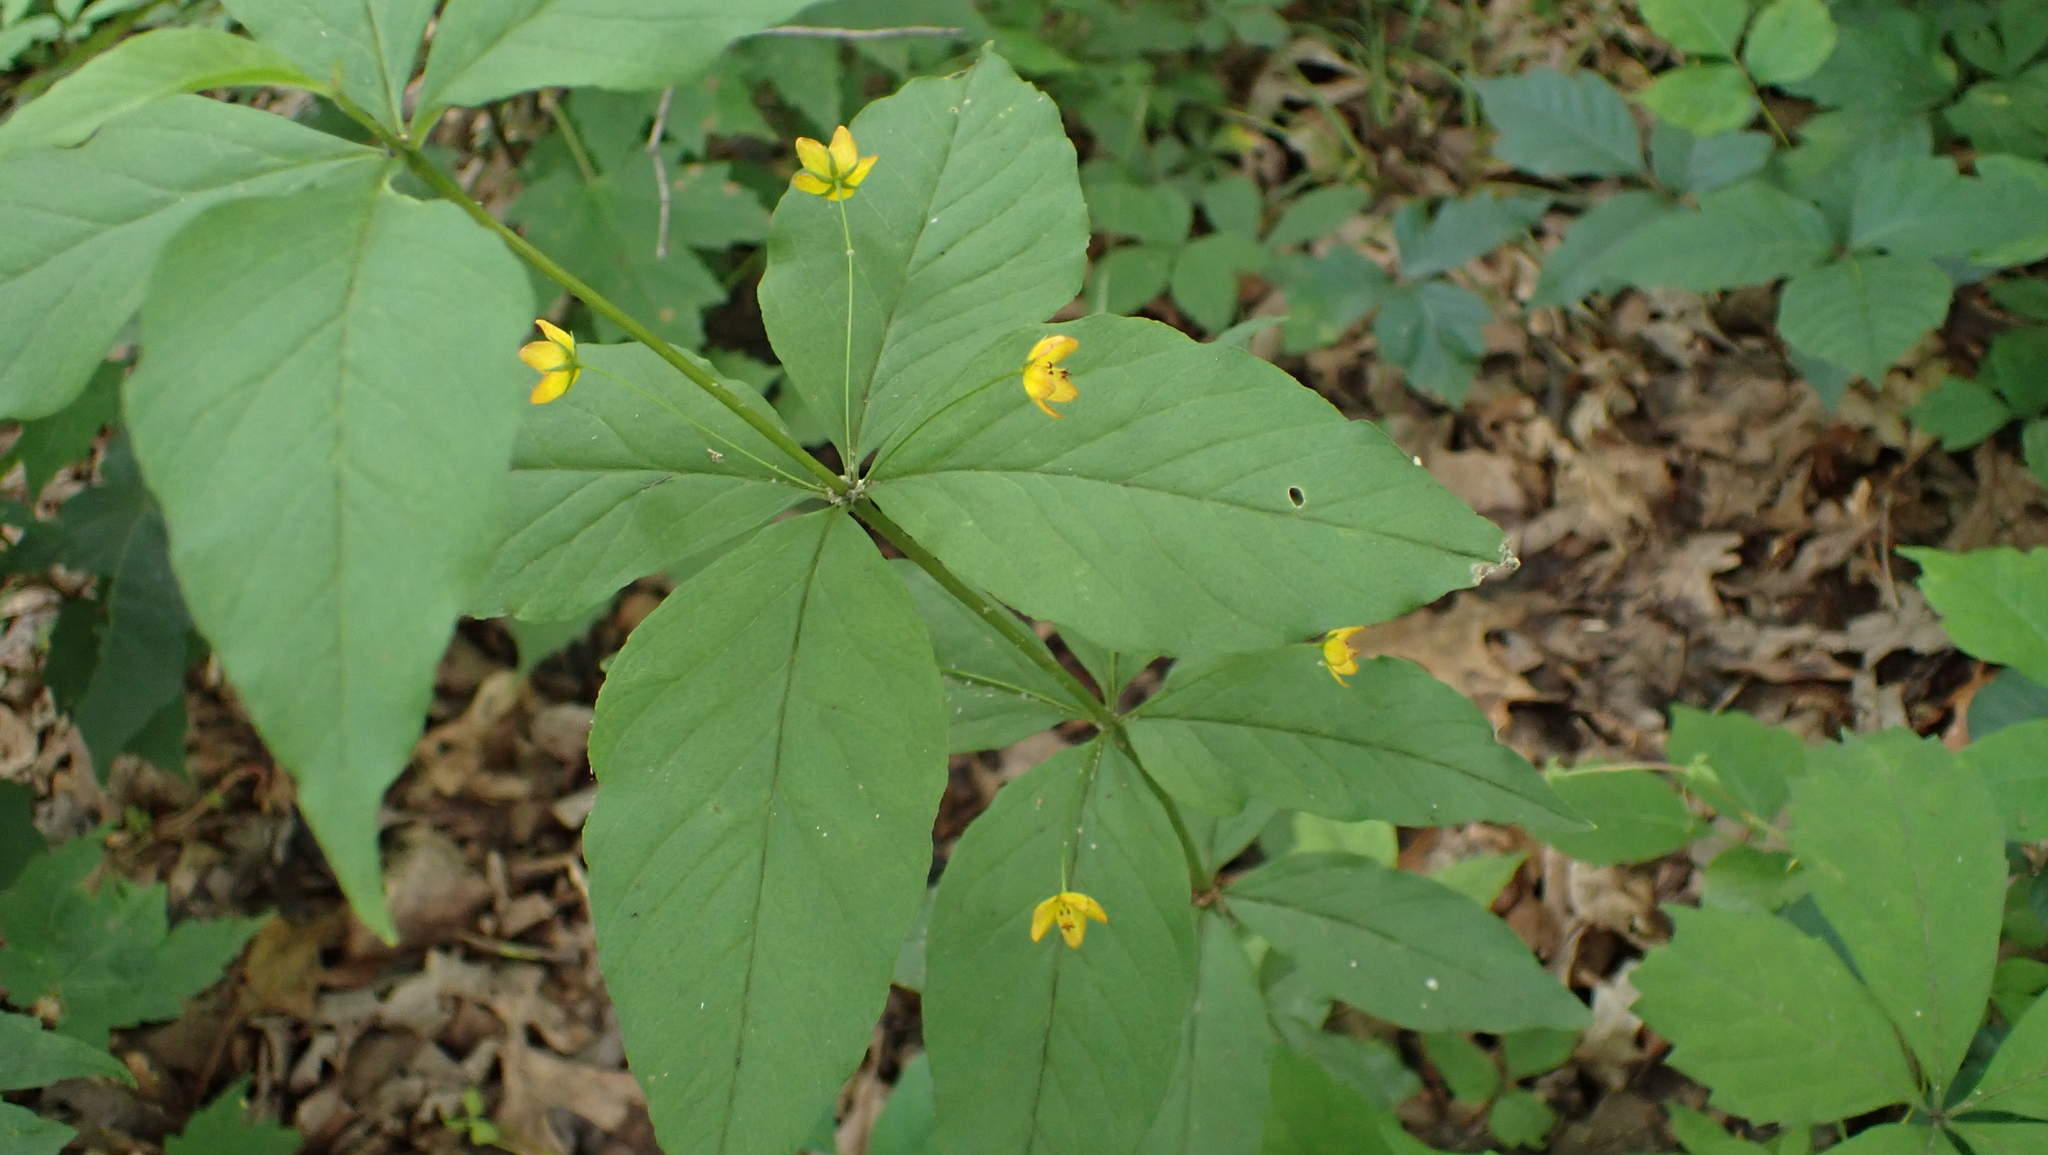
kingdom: Plantae
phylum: Tracheophyta
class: Magnoliopsida
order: Ericales
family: Primulaceae
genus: Lysimachia
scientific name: Lysimachia quadrifolia
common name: Whorled loosestrife
